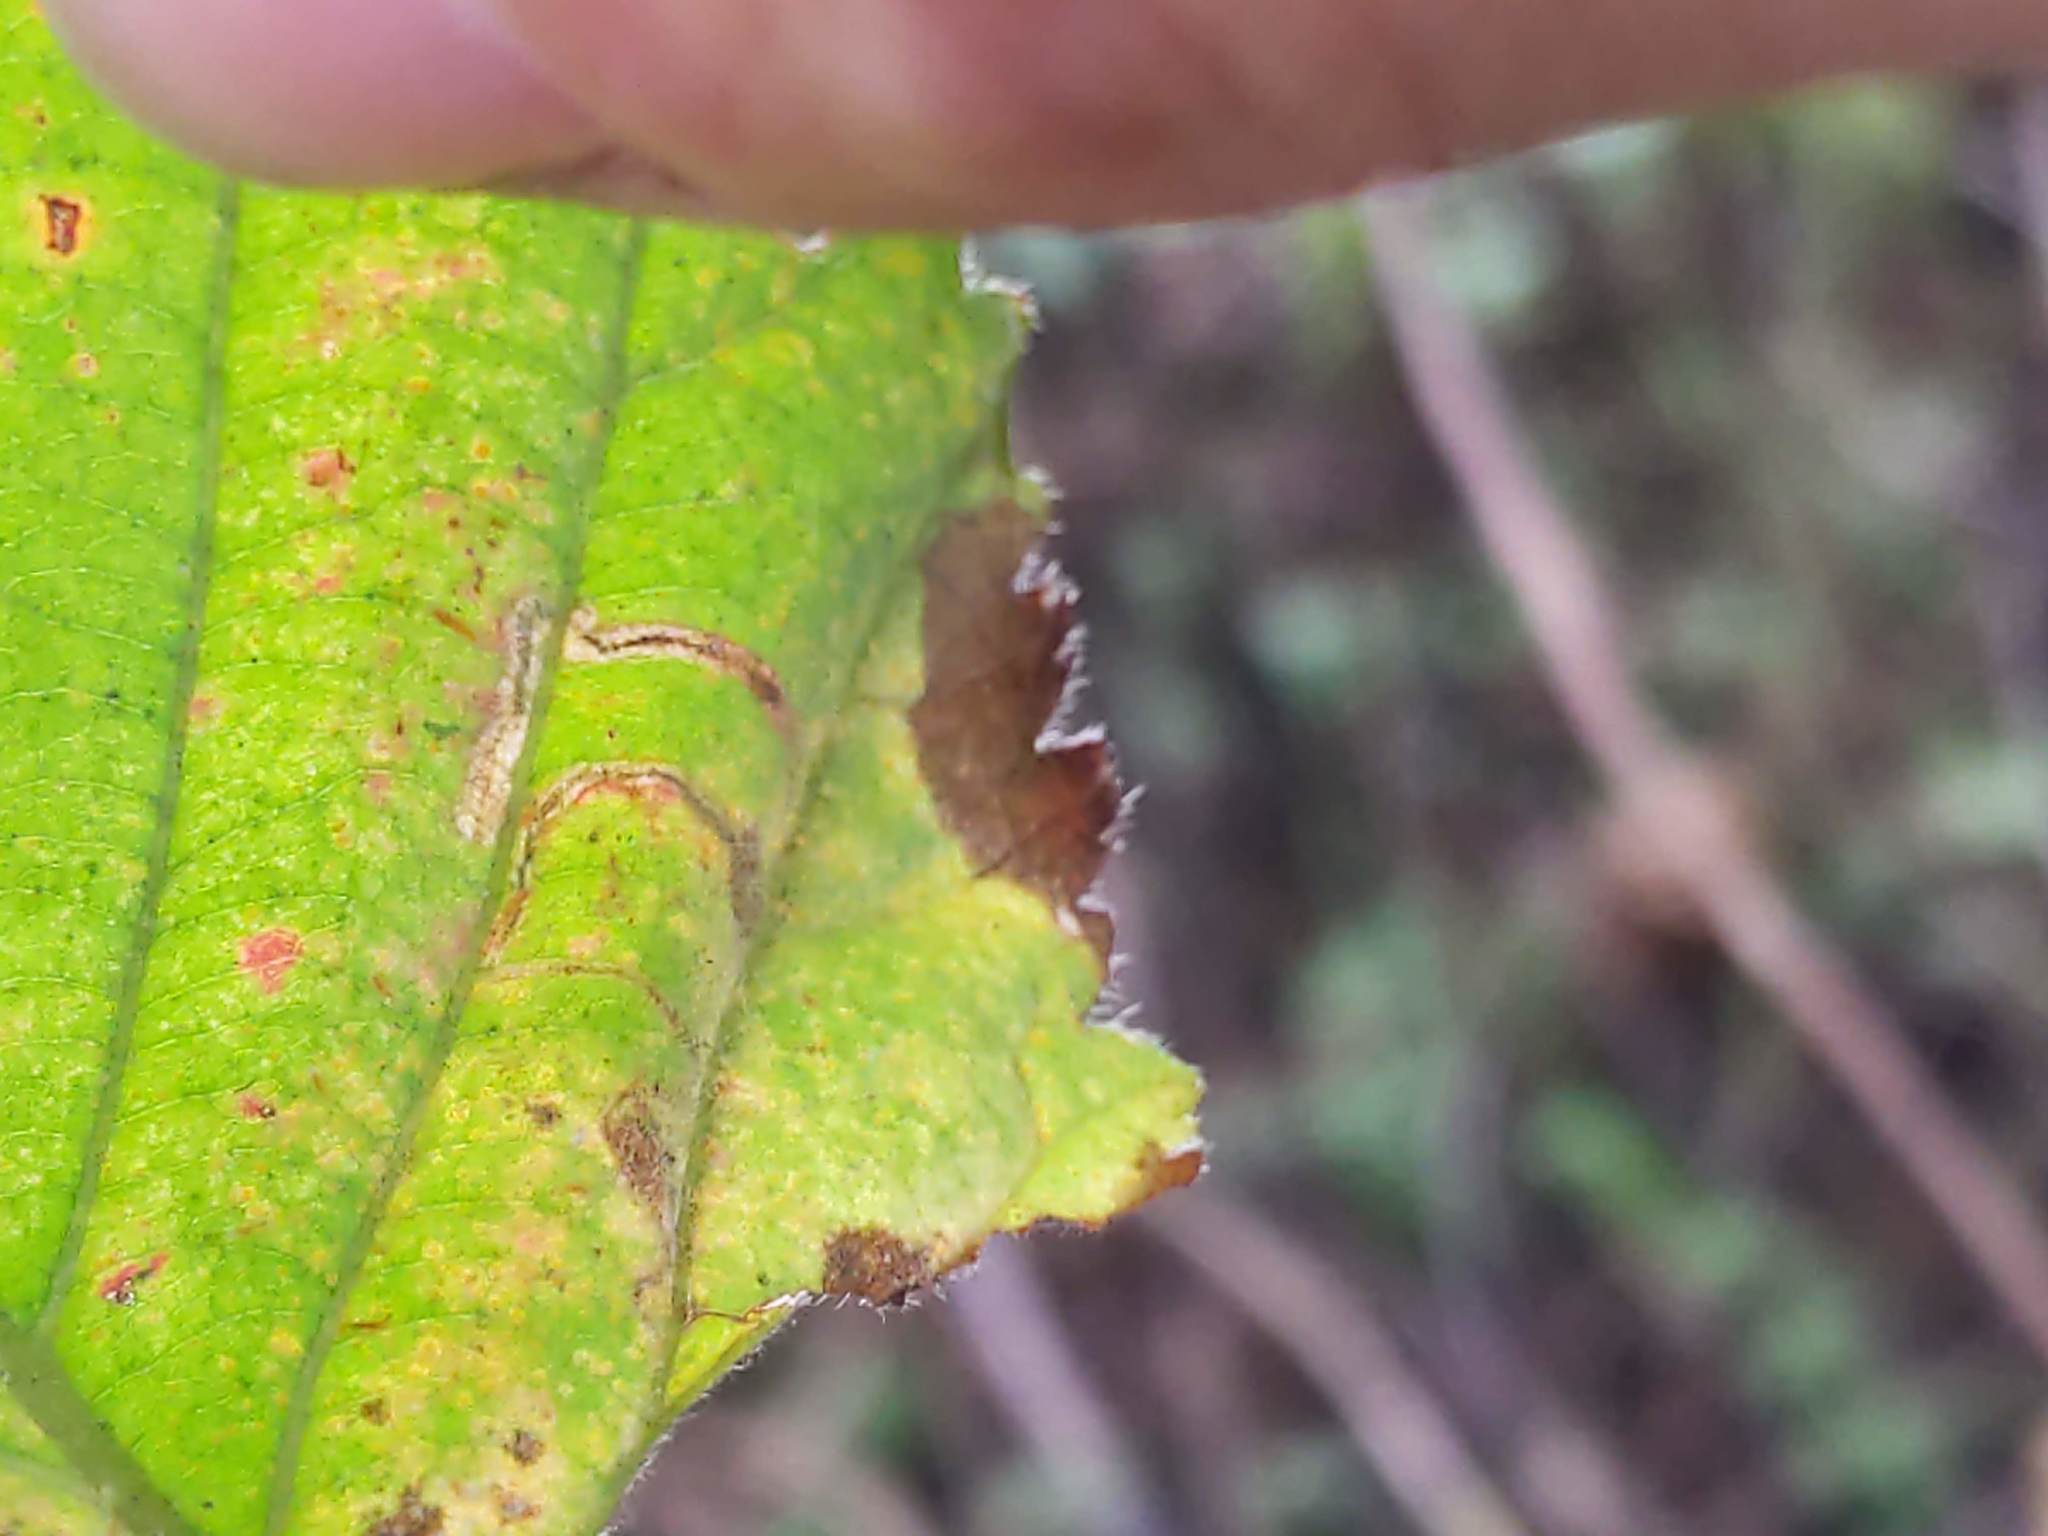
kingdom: Animalia
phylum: Arthropoda
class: Insecta
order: Lepidoptera
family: Nepticulidae
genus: Stigmella
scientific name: Stigmella villosella
